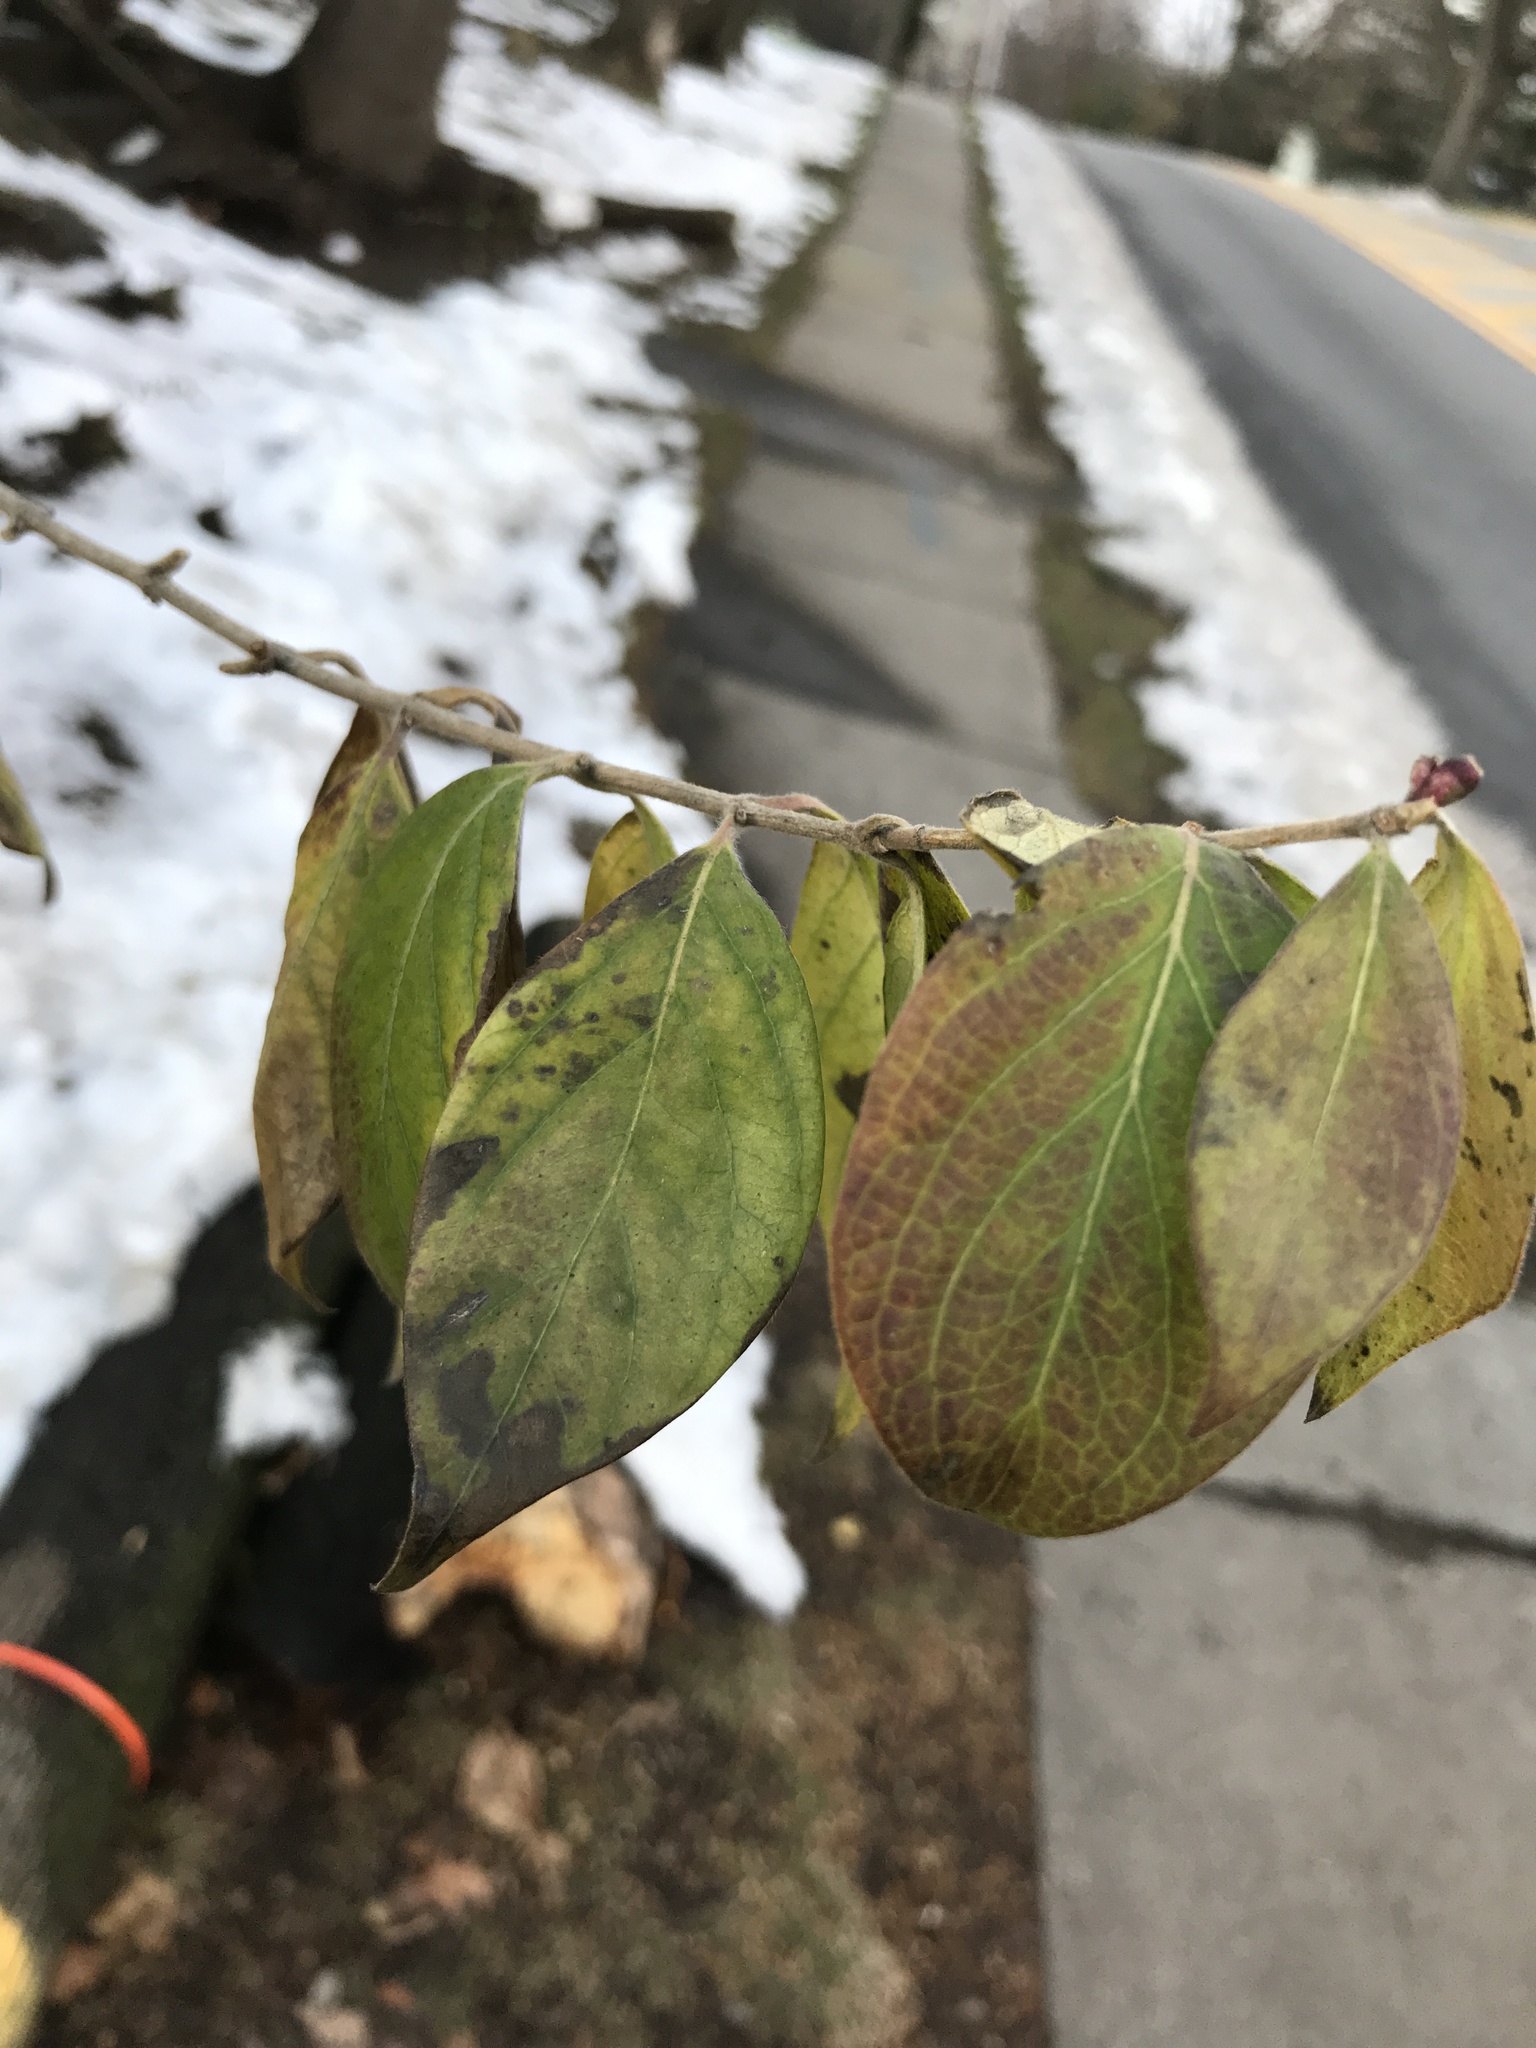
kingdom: Plantae
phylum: Tracheophyta
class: Magnoliopsida
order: Dipsacales
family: Caprifoliaceae
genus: Lonicera
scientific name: Lonicera maackii
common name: Amur honeysuckle
